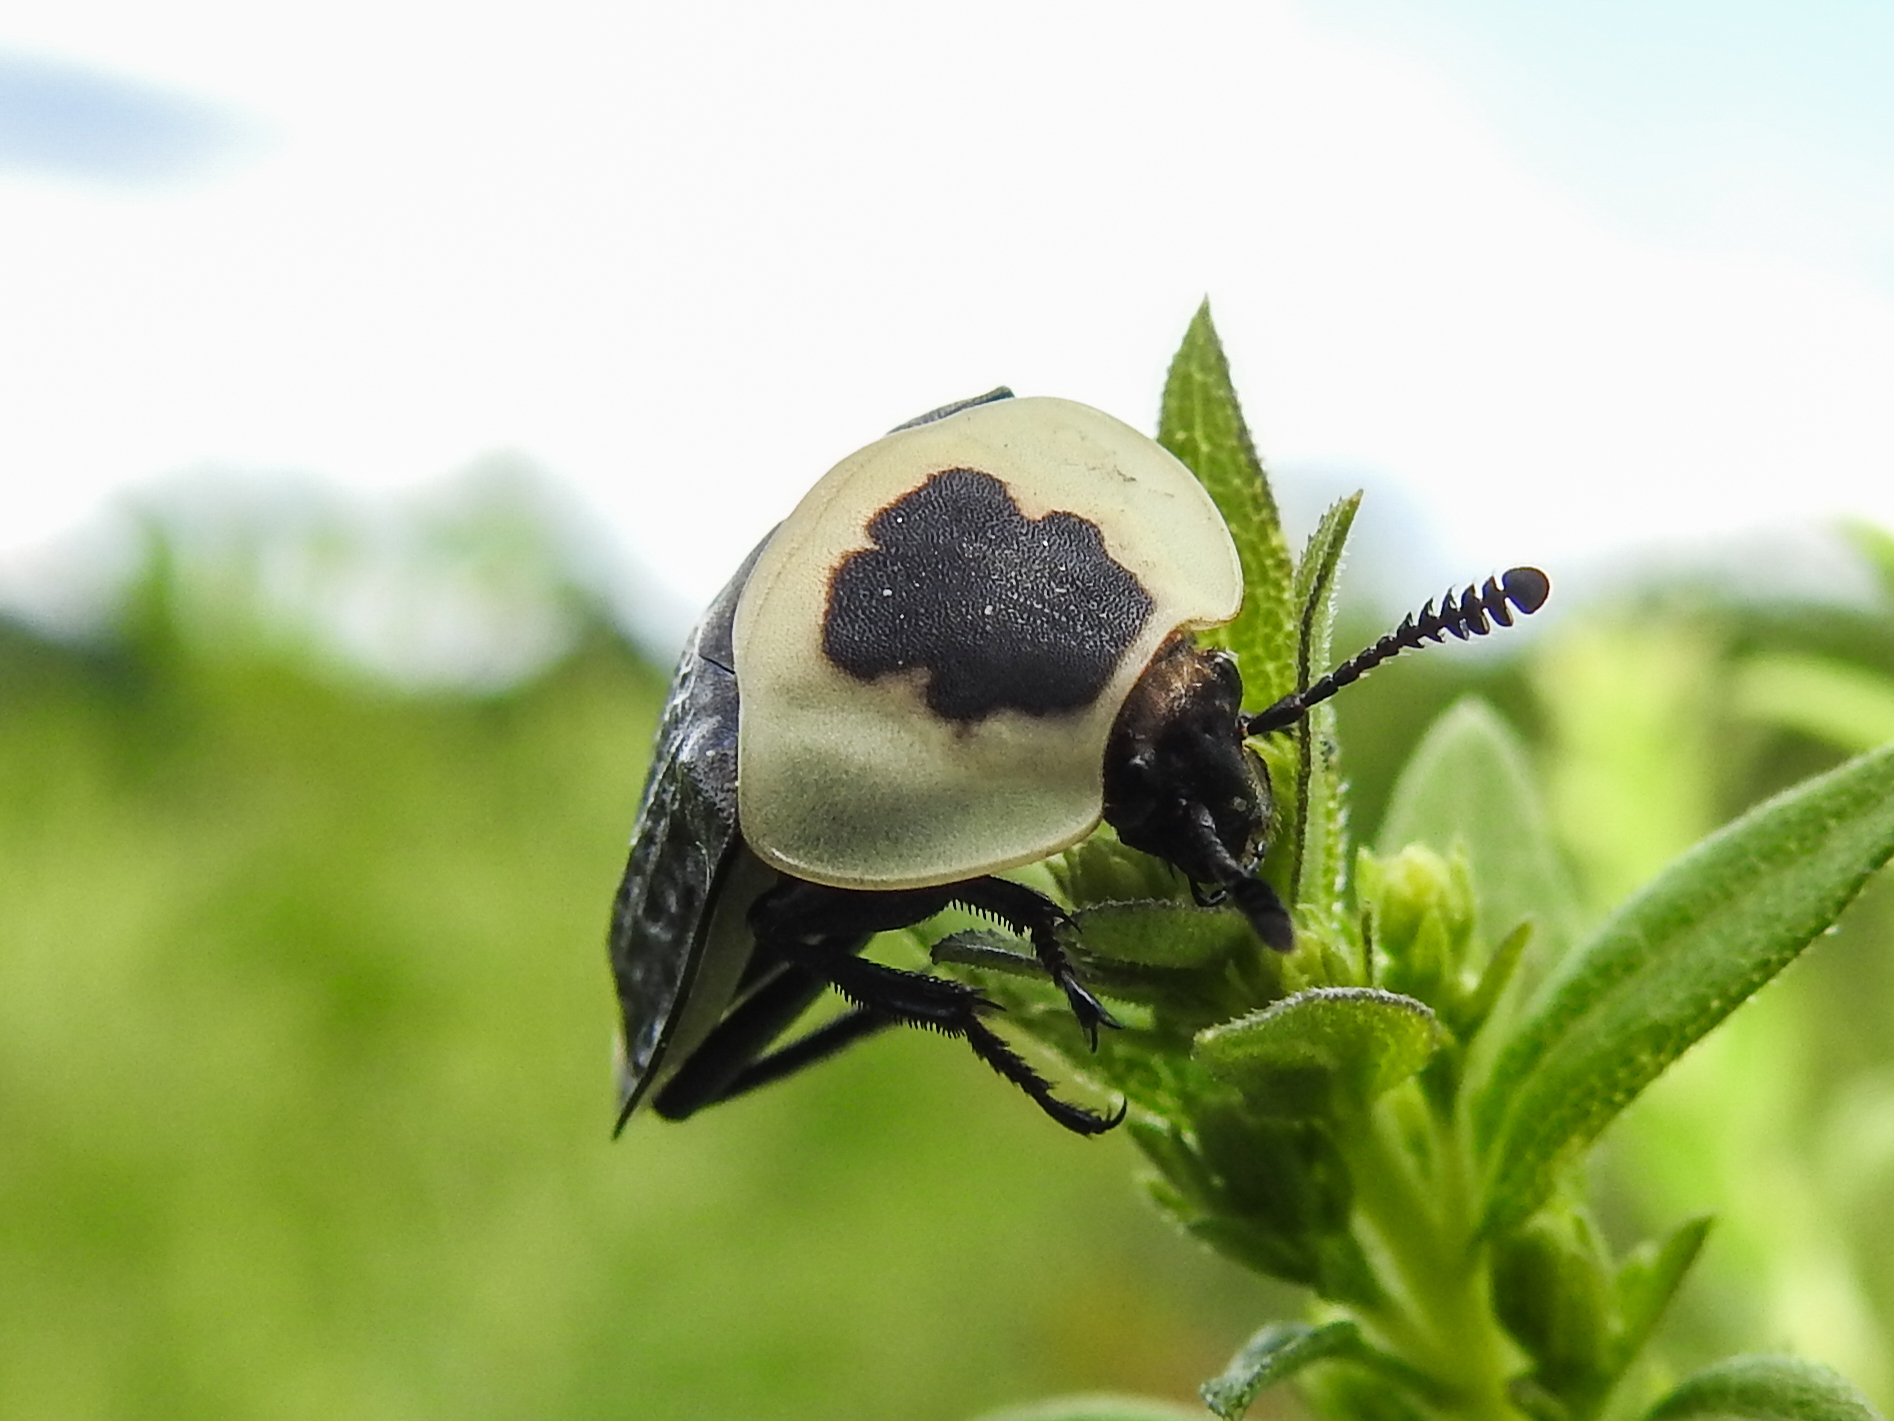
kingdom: Animalia
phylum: Arthropoda
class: Insecta
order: Coleoptera
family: Staphylinidae
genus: Necrophila
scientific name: Necrophila americana
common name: American carrion beetle
